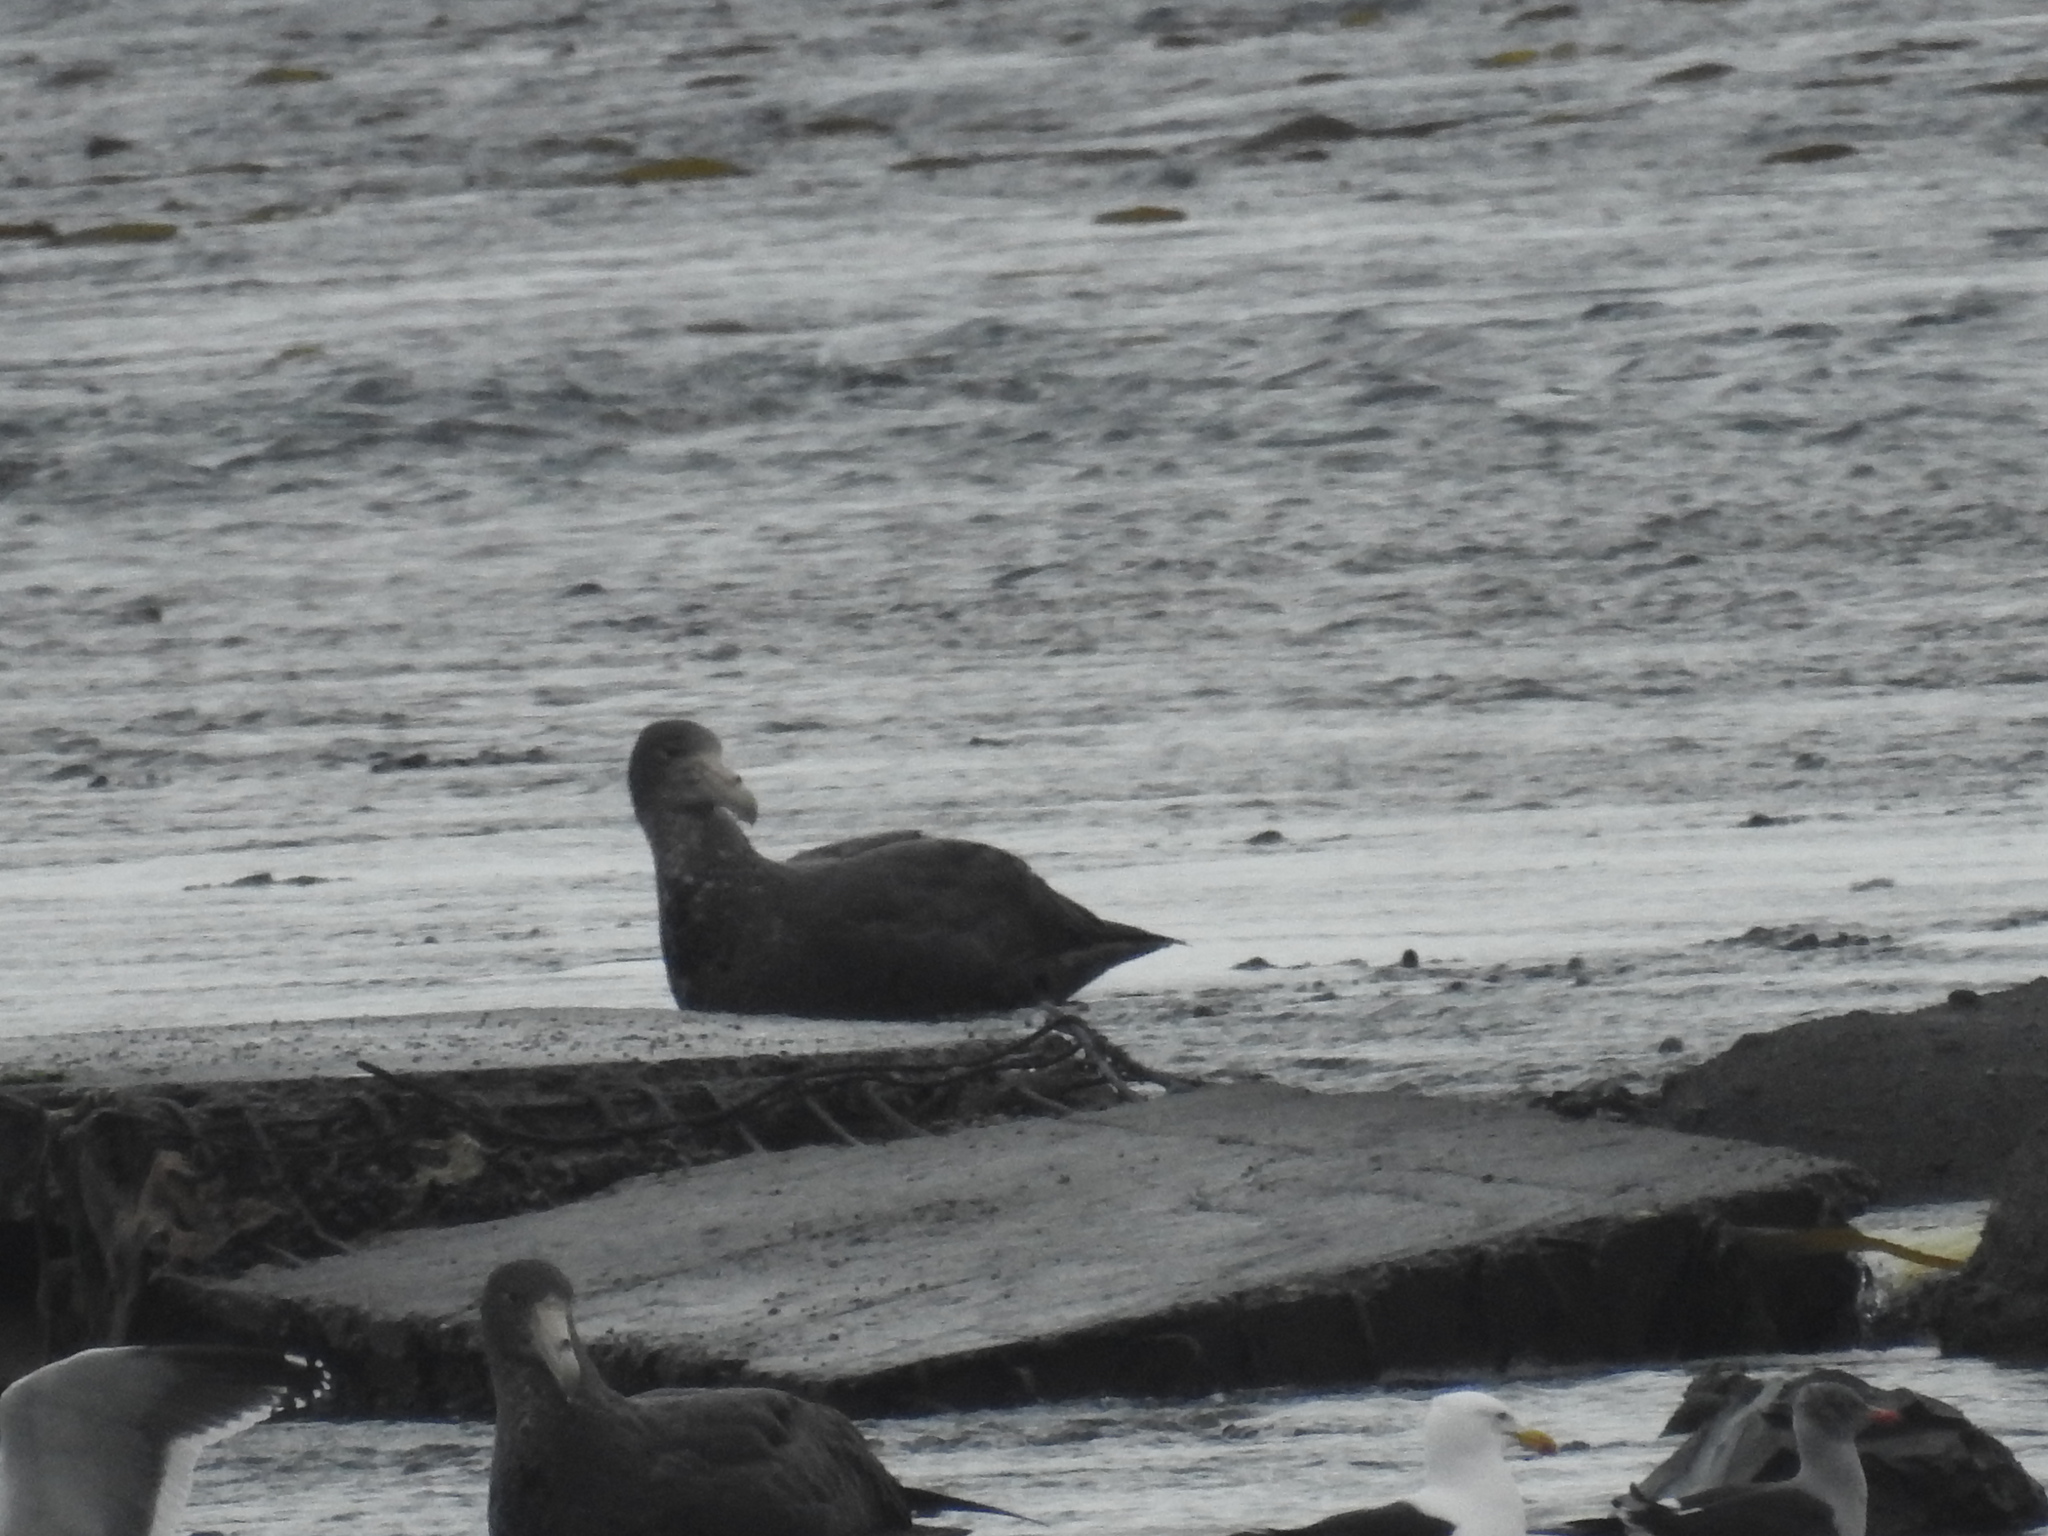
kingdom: Animalia
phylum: Chordata
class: Aves
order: Procellariiformes
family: Procellariidae
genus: Macronectes
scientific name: Macronectes giganteus
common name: Southern giant petrel
